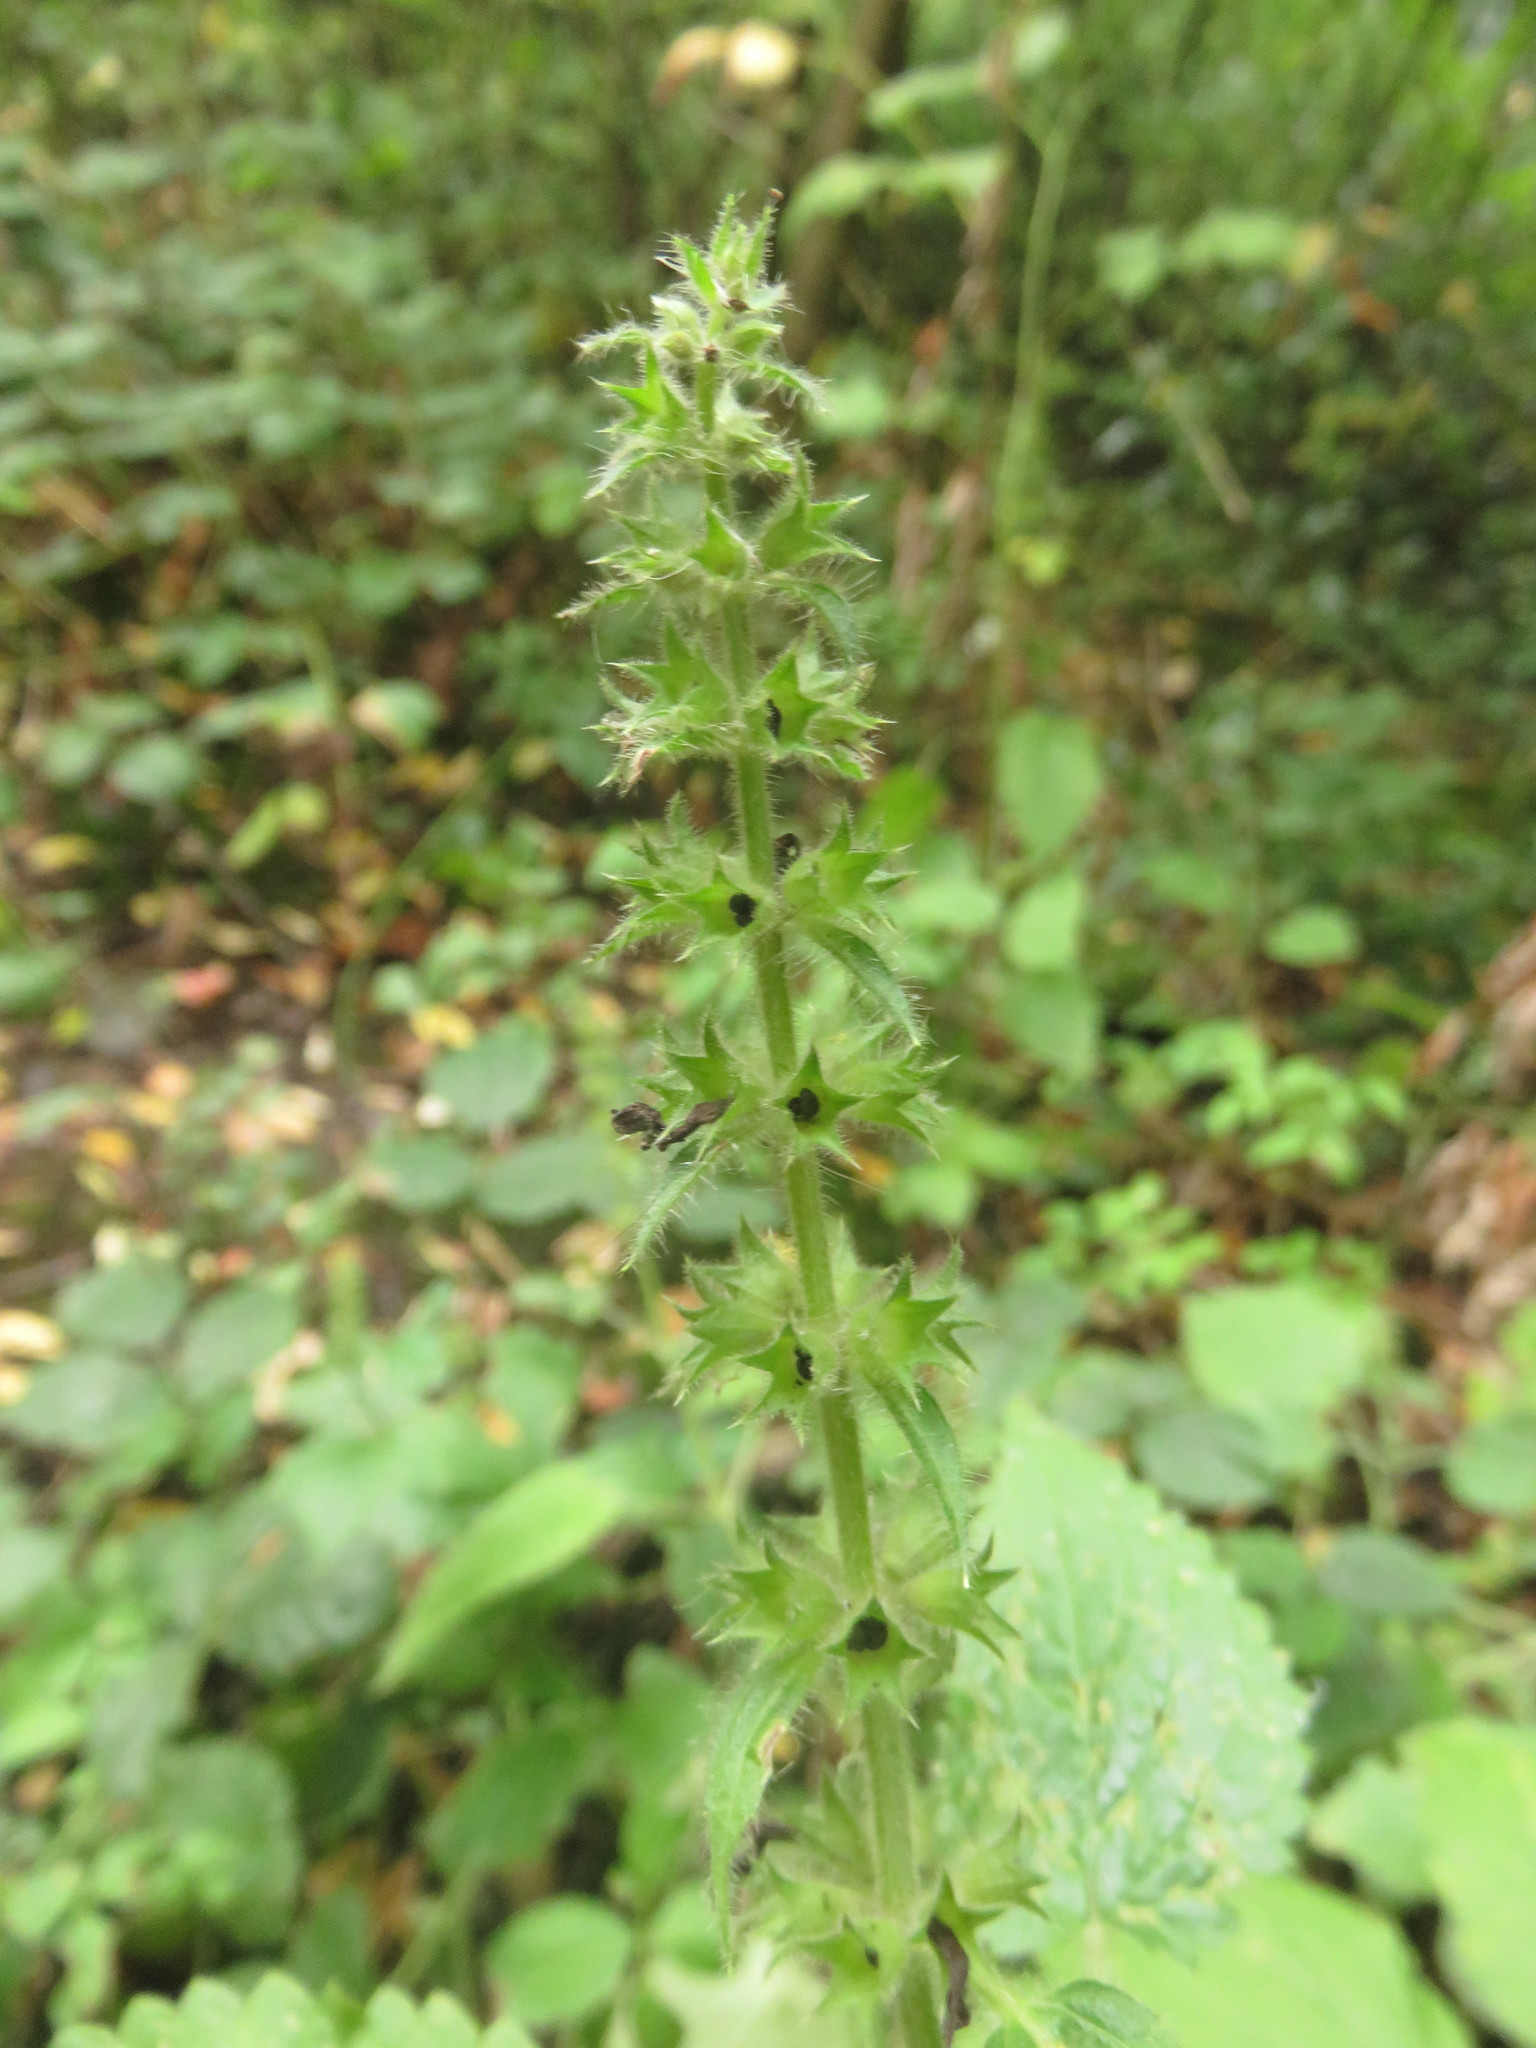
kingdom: Plantae
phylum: Tracheophyta
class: Magnoliopsida
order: Lamiales
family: Lamiaceae
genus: Stachys
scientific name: Stachys sylvatica
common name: Hedge woundwort
